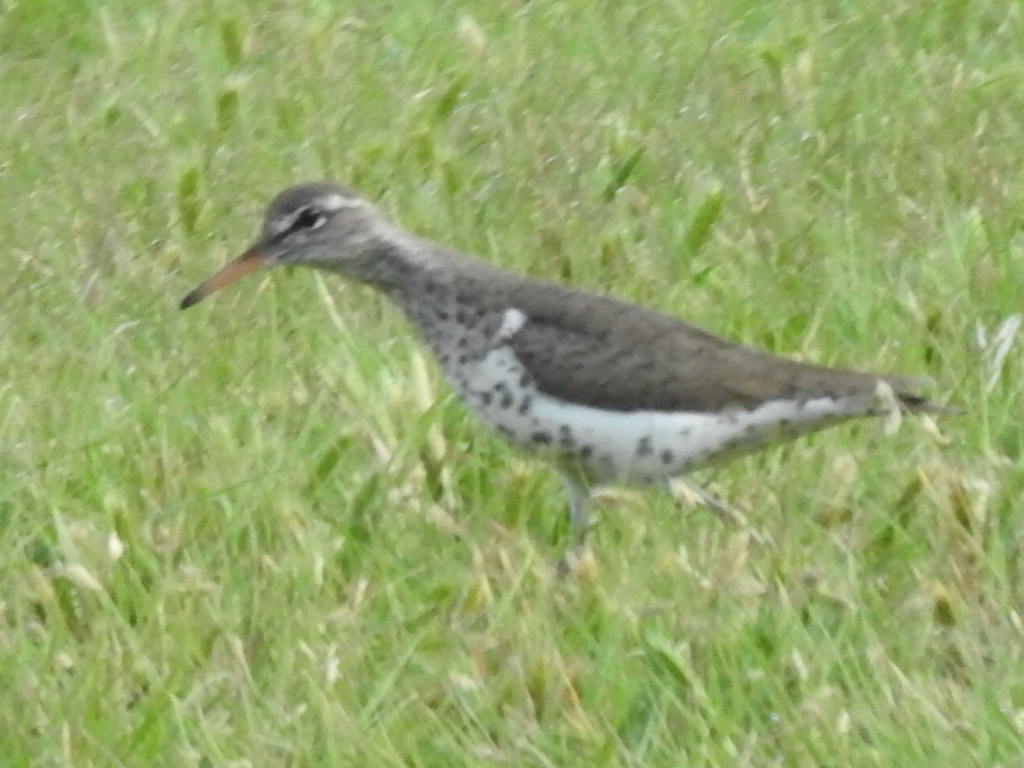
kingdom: Animalia
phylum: Chordata
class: Aves
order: Charadriiformes
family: Scolopacidae
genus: Actitis
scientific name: Actitis macularius
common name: Spotted sandpiper
